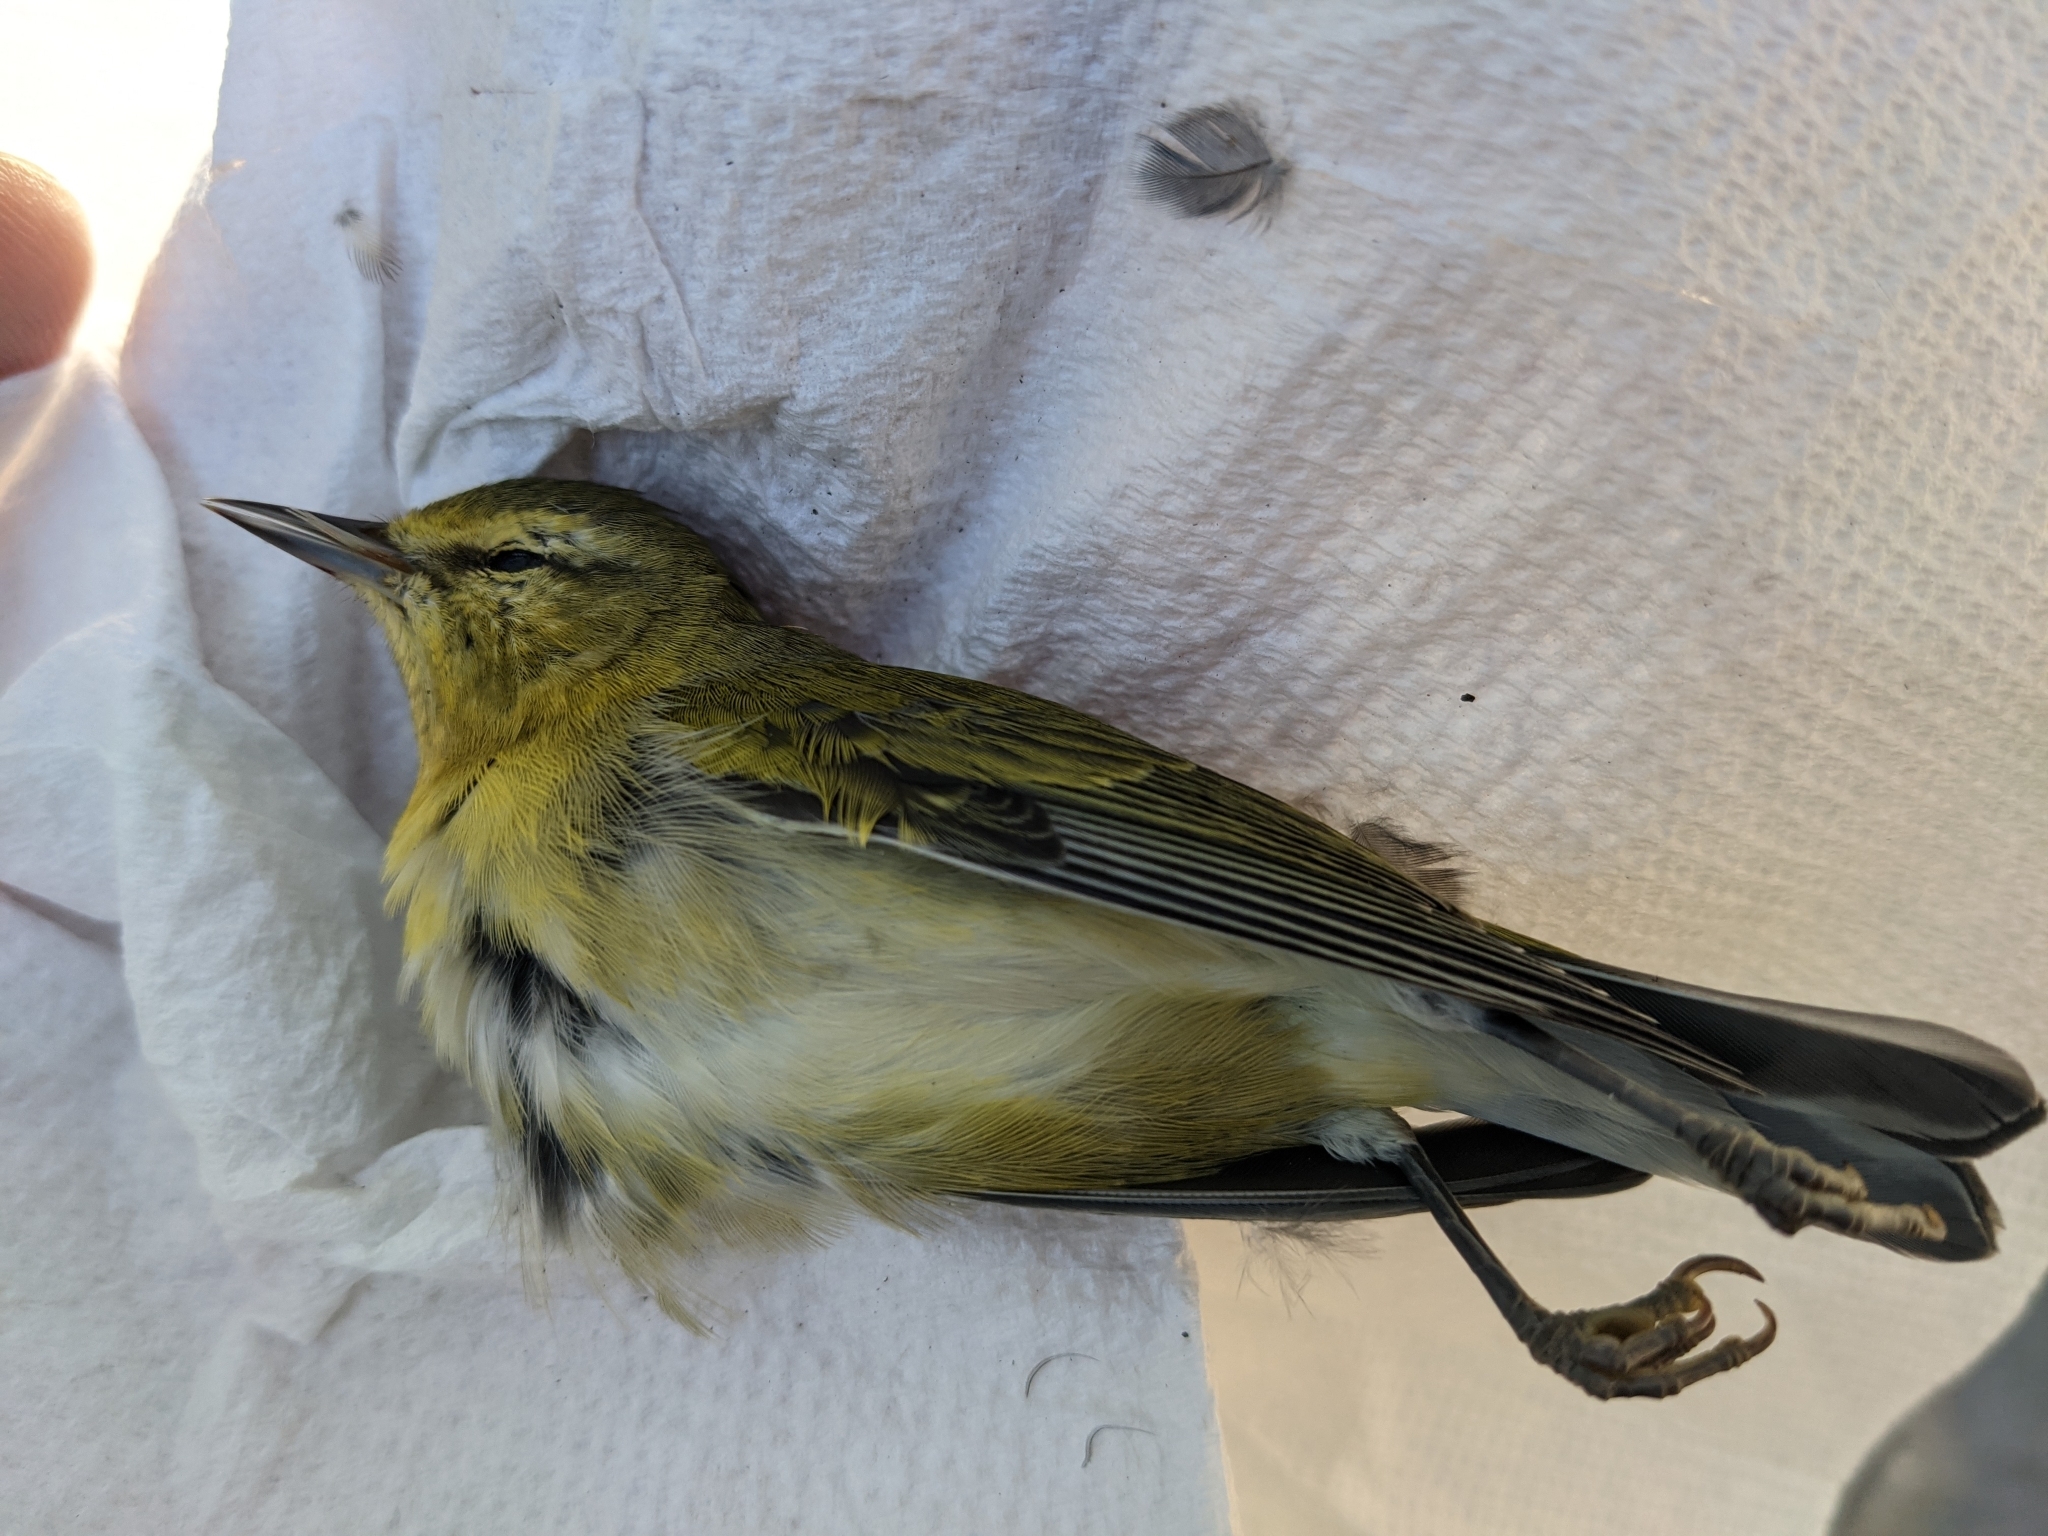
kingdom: Animalia
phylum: Chordata
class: Aves
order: Passeriformes
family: Parulidae
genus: Leiothlypis
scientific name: Leiothlypis peregrina
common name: Tennessee warbler
